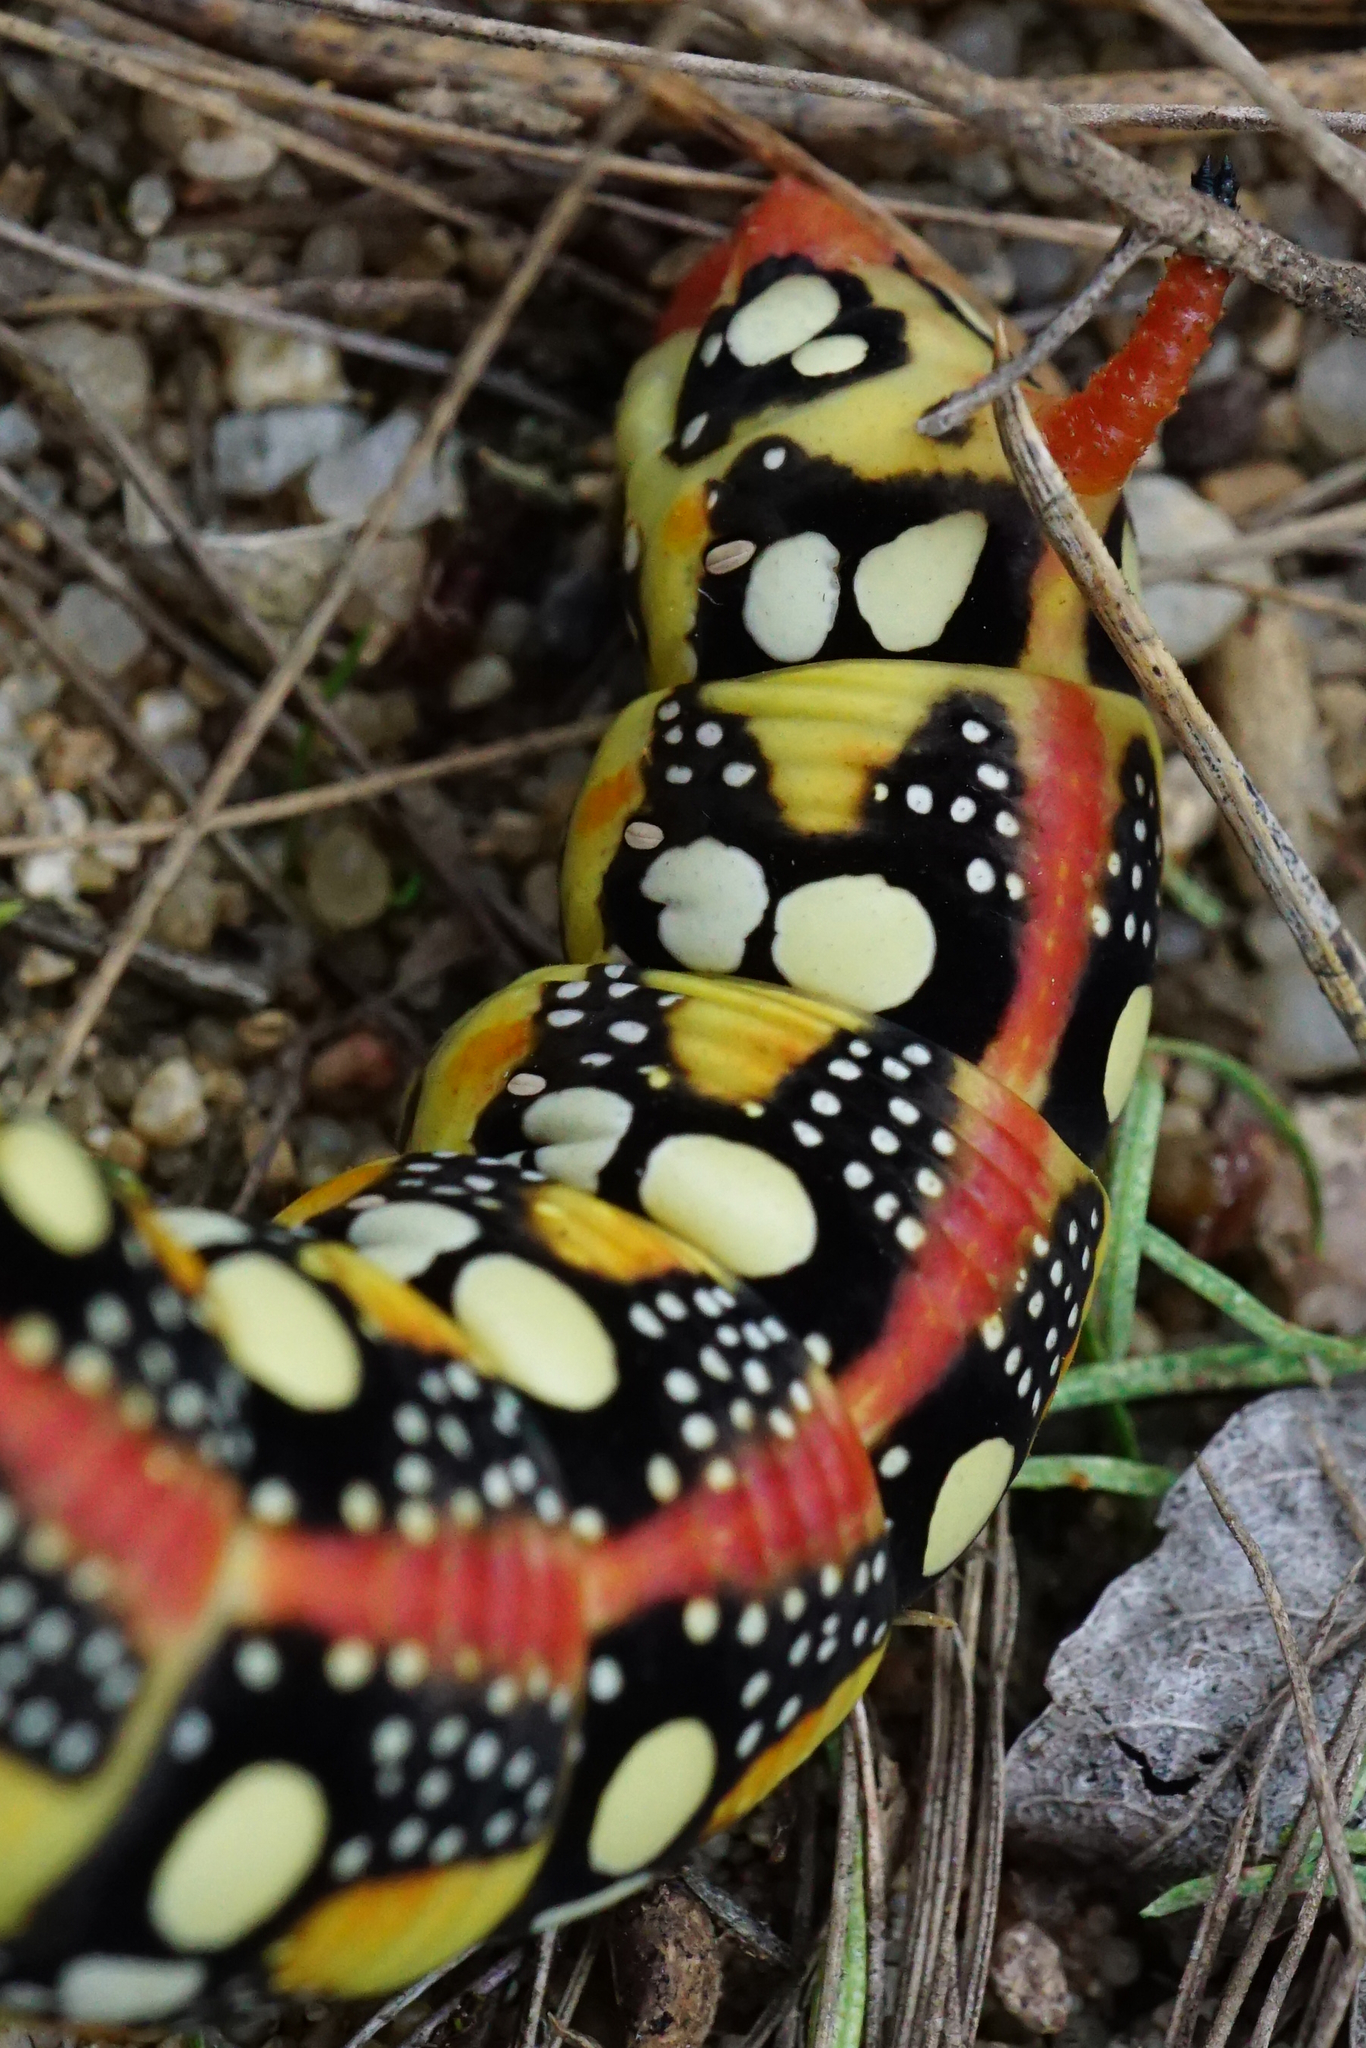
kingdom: Animalia
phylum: Arthropoda
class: Insecta
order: Lepidoptera
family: Sphingidae
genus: Hyles
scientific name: Hyles euphorbiae
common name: Spurge hawk-moth
